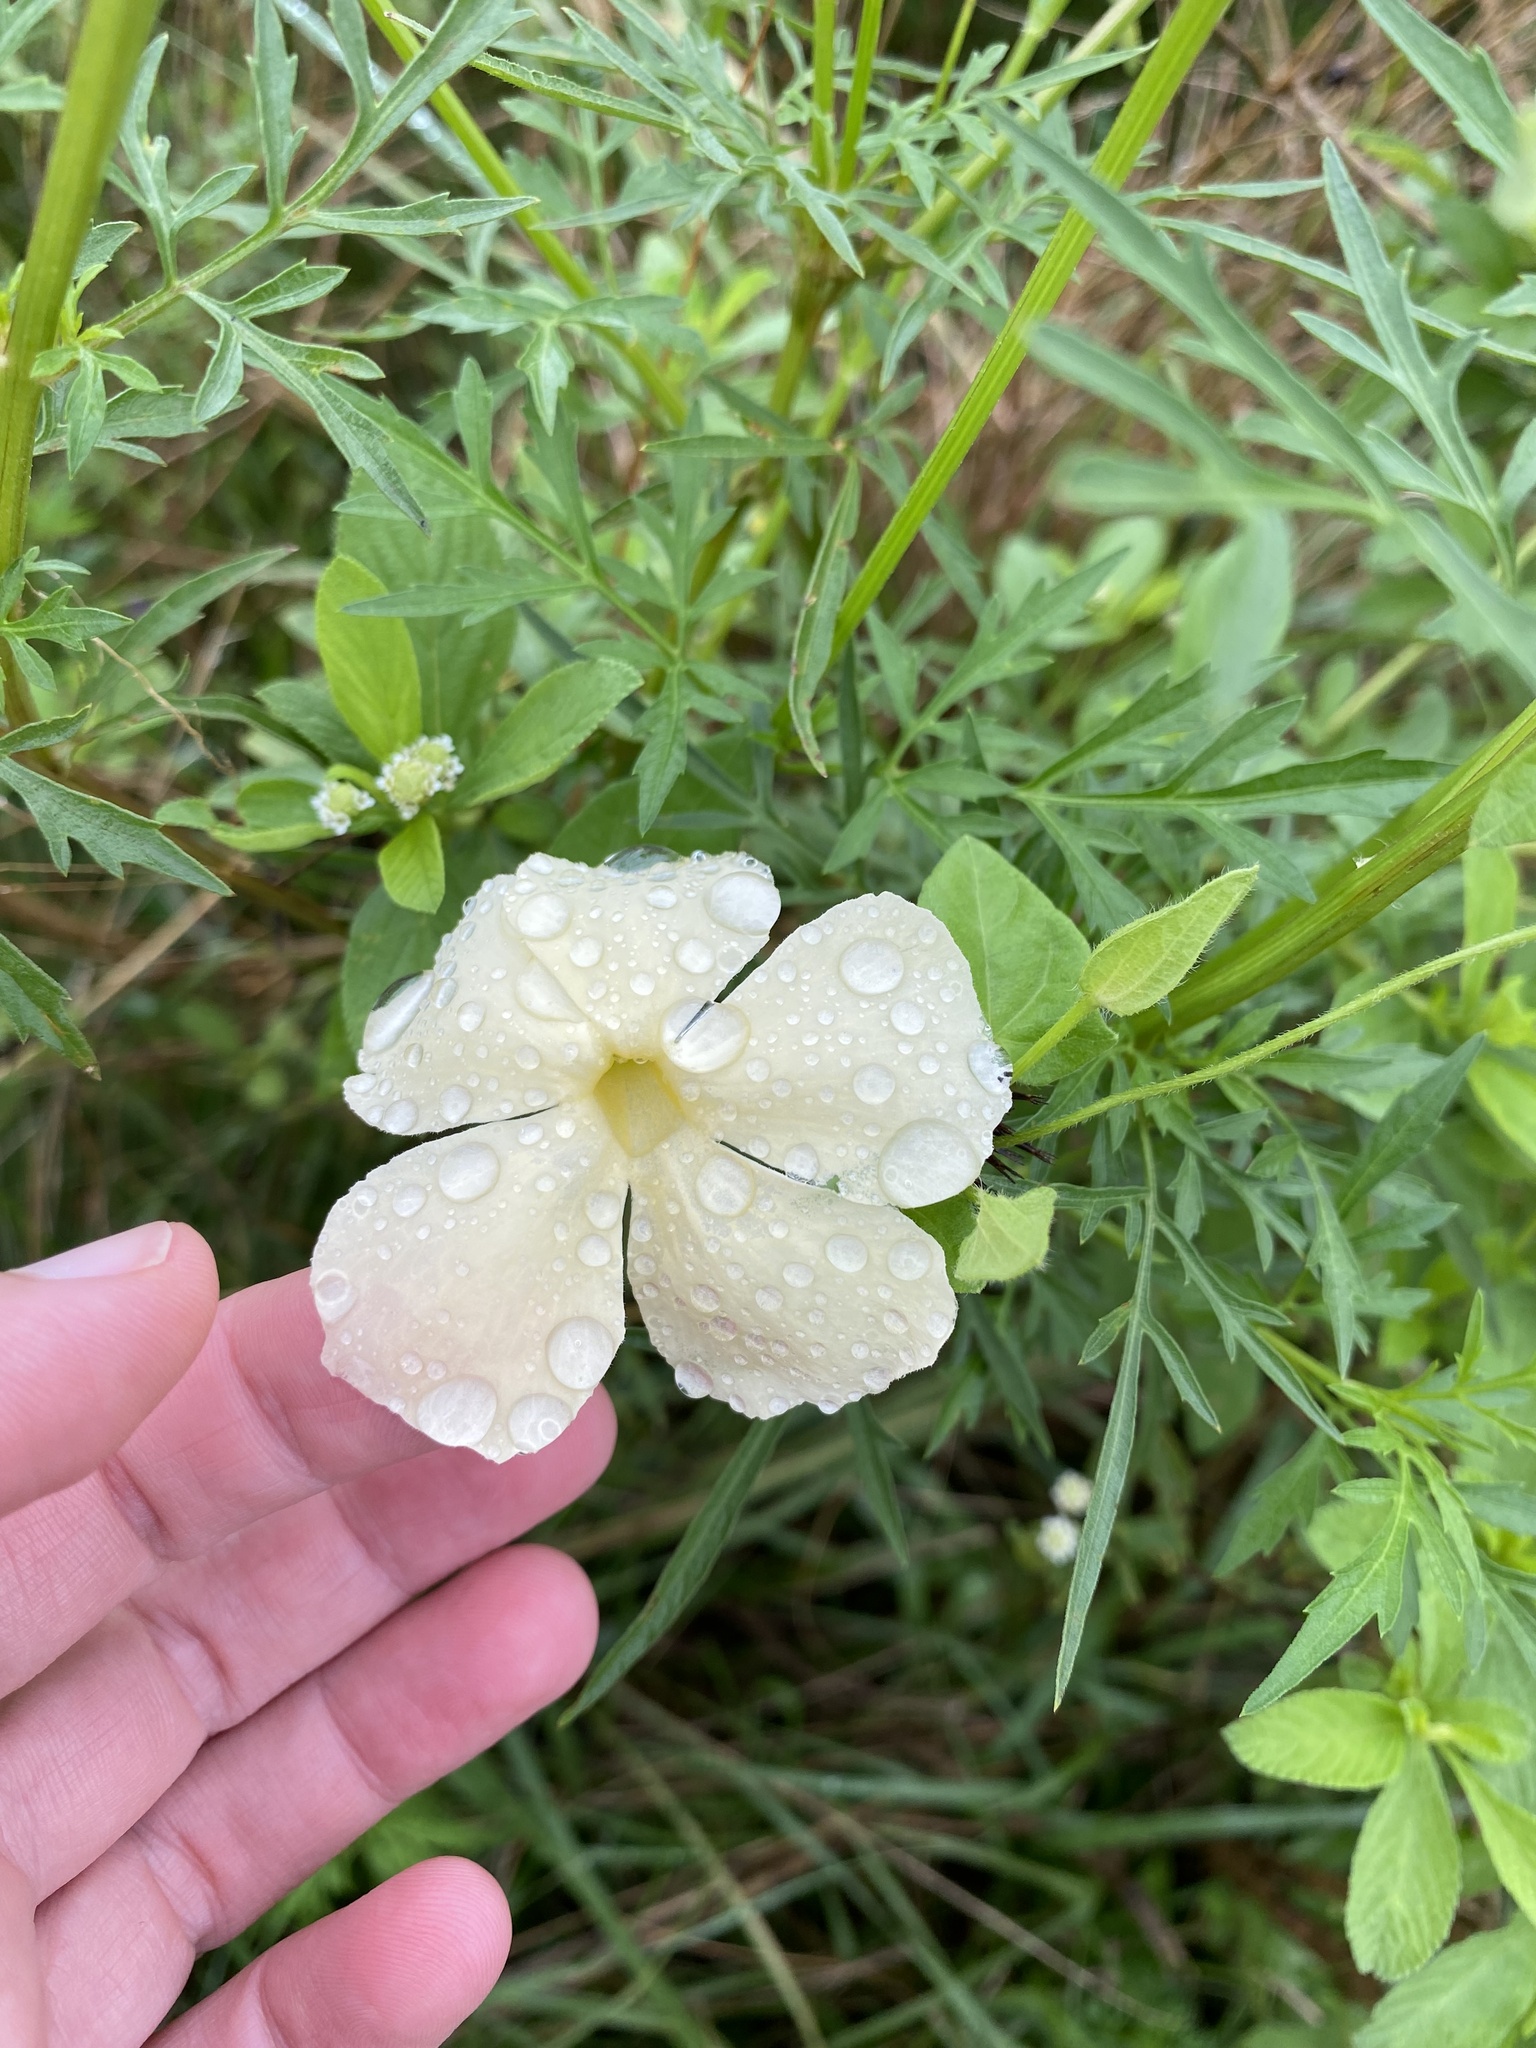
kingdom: Plantae
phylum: Tracheophyta
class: Magnoliopsida
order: Lamiales
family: Acanthaceae
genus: Thunbergia
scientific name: Thunbergia atriplicifolia
